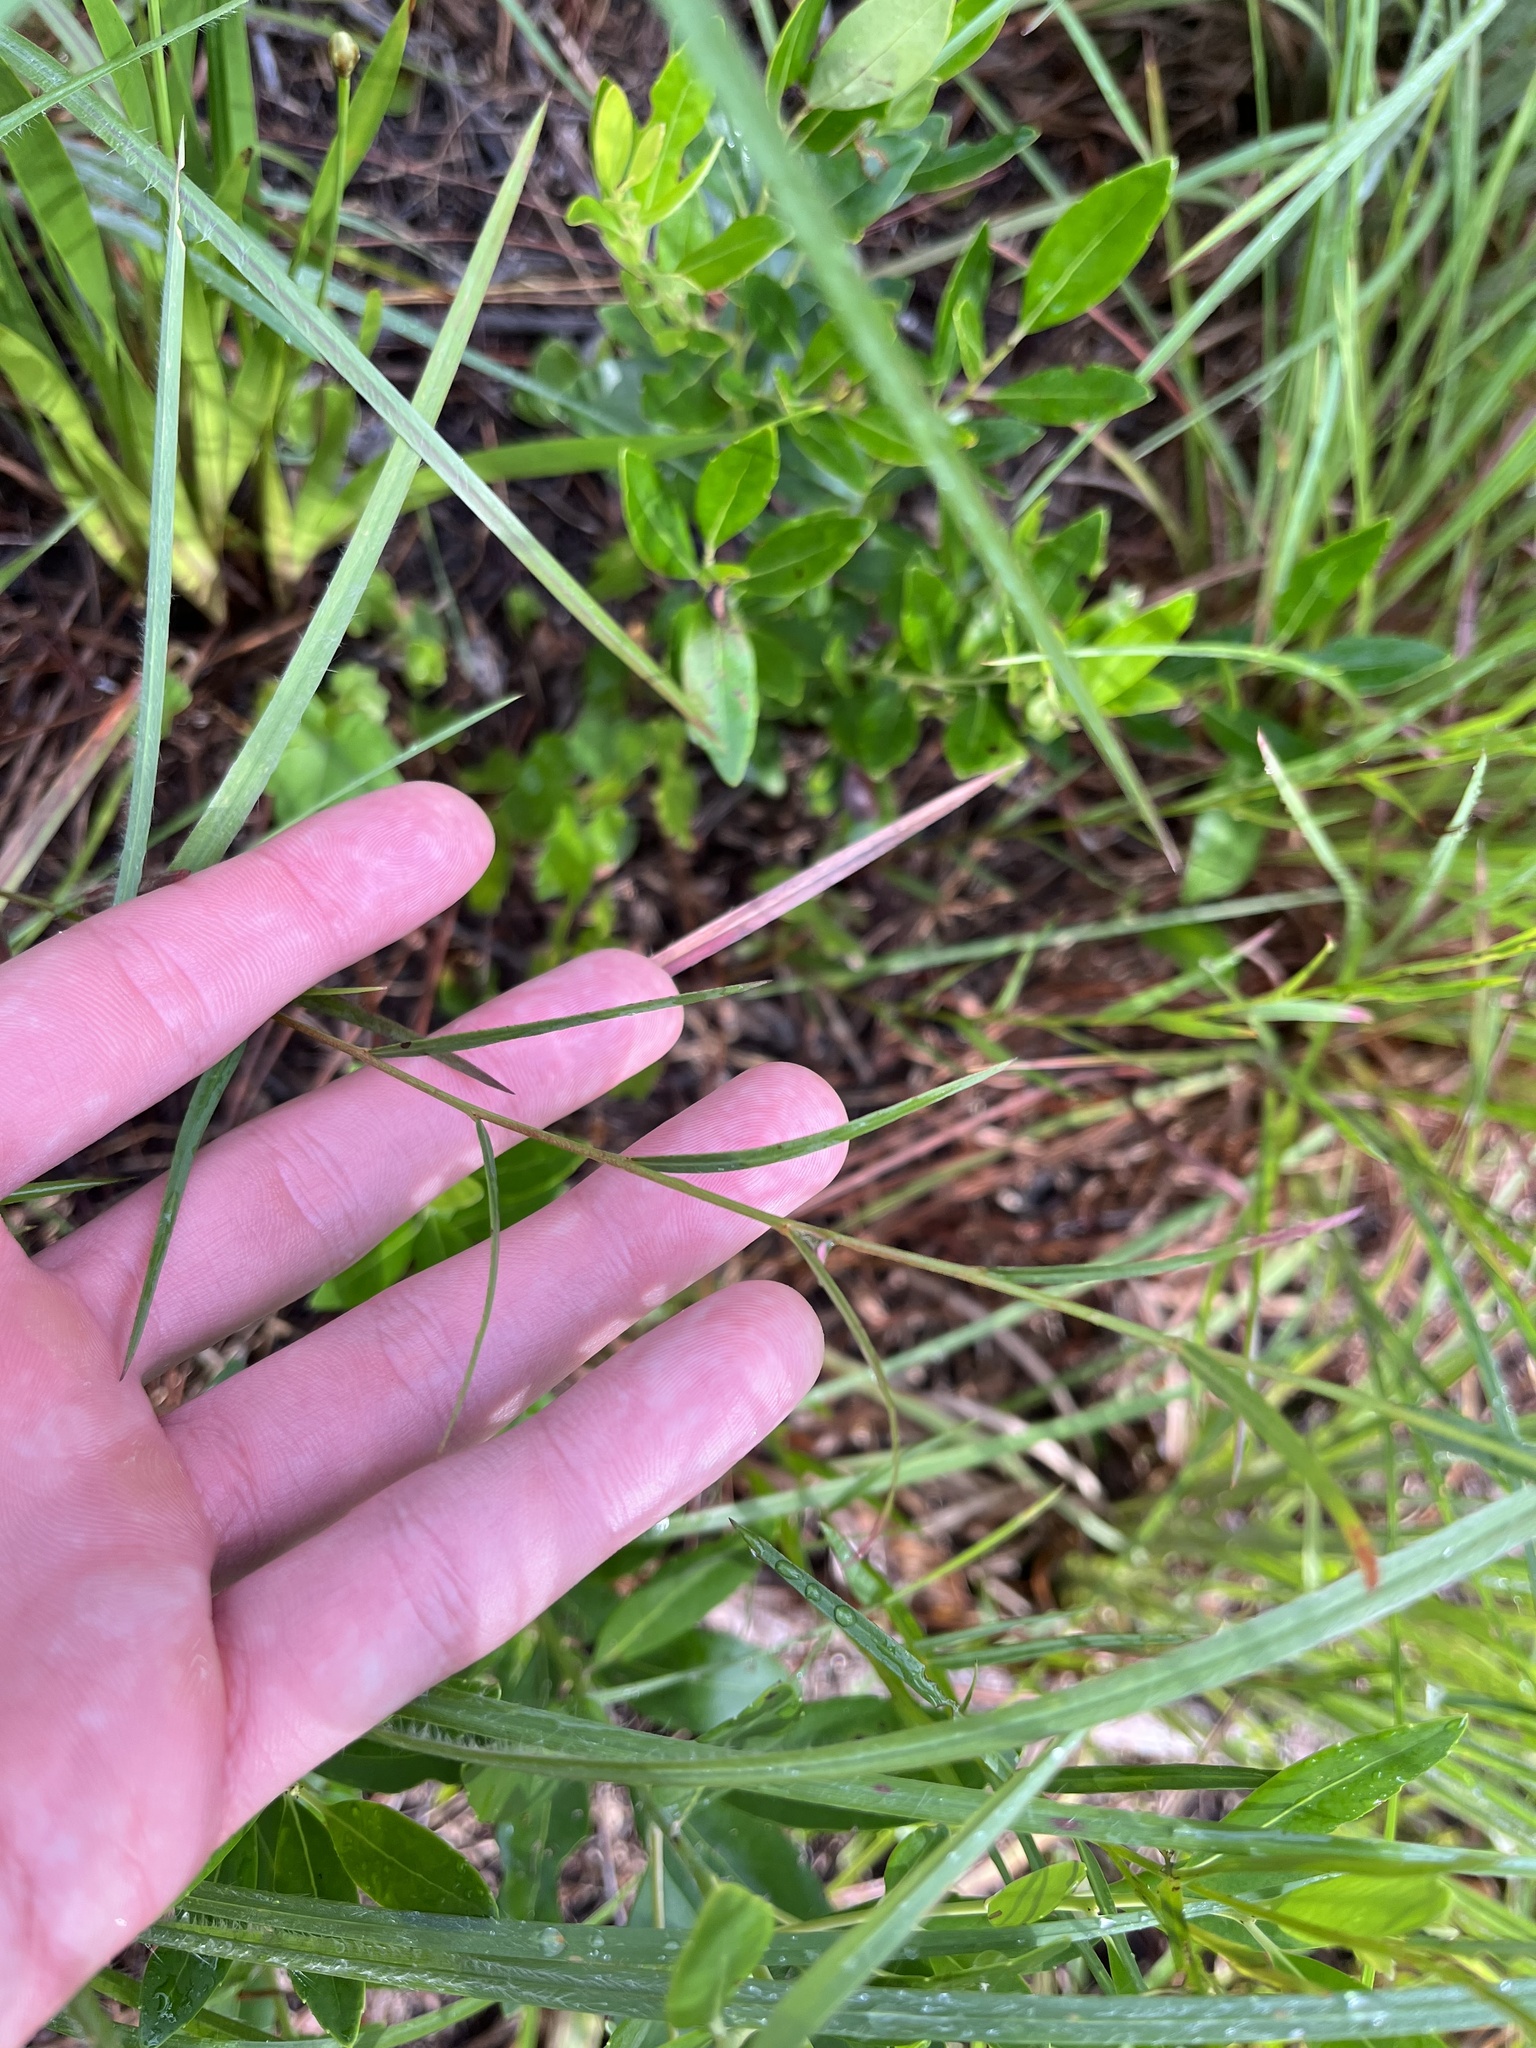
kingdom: Plantae
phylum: Tracheophyta
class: Magnoliopsida
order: Myrtales
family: Onagraceae
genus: Ludwigia
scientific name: Ludwigia suffruticosa
